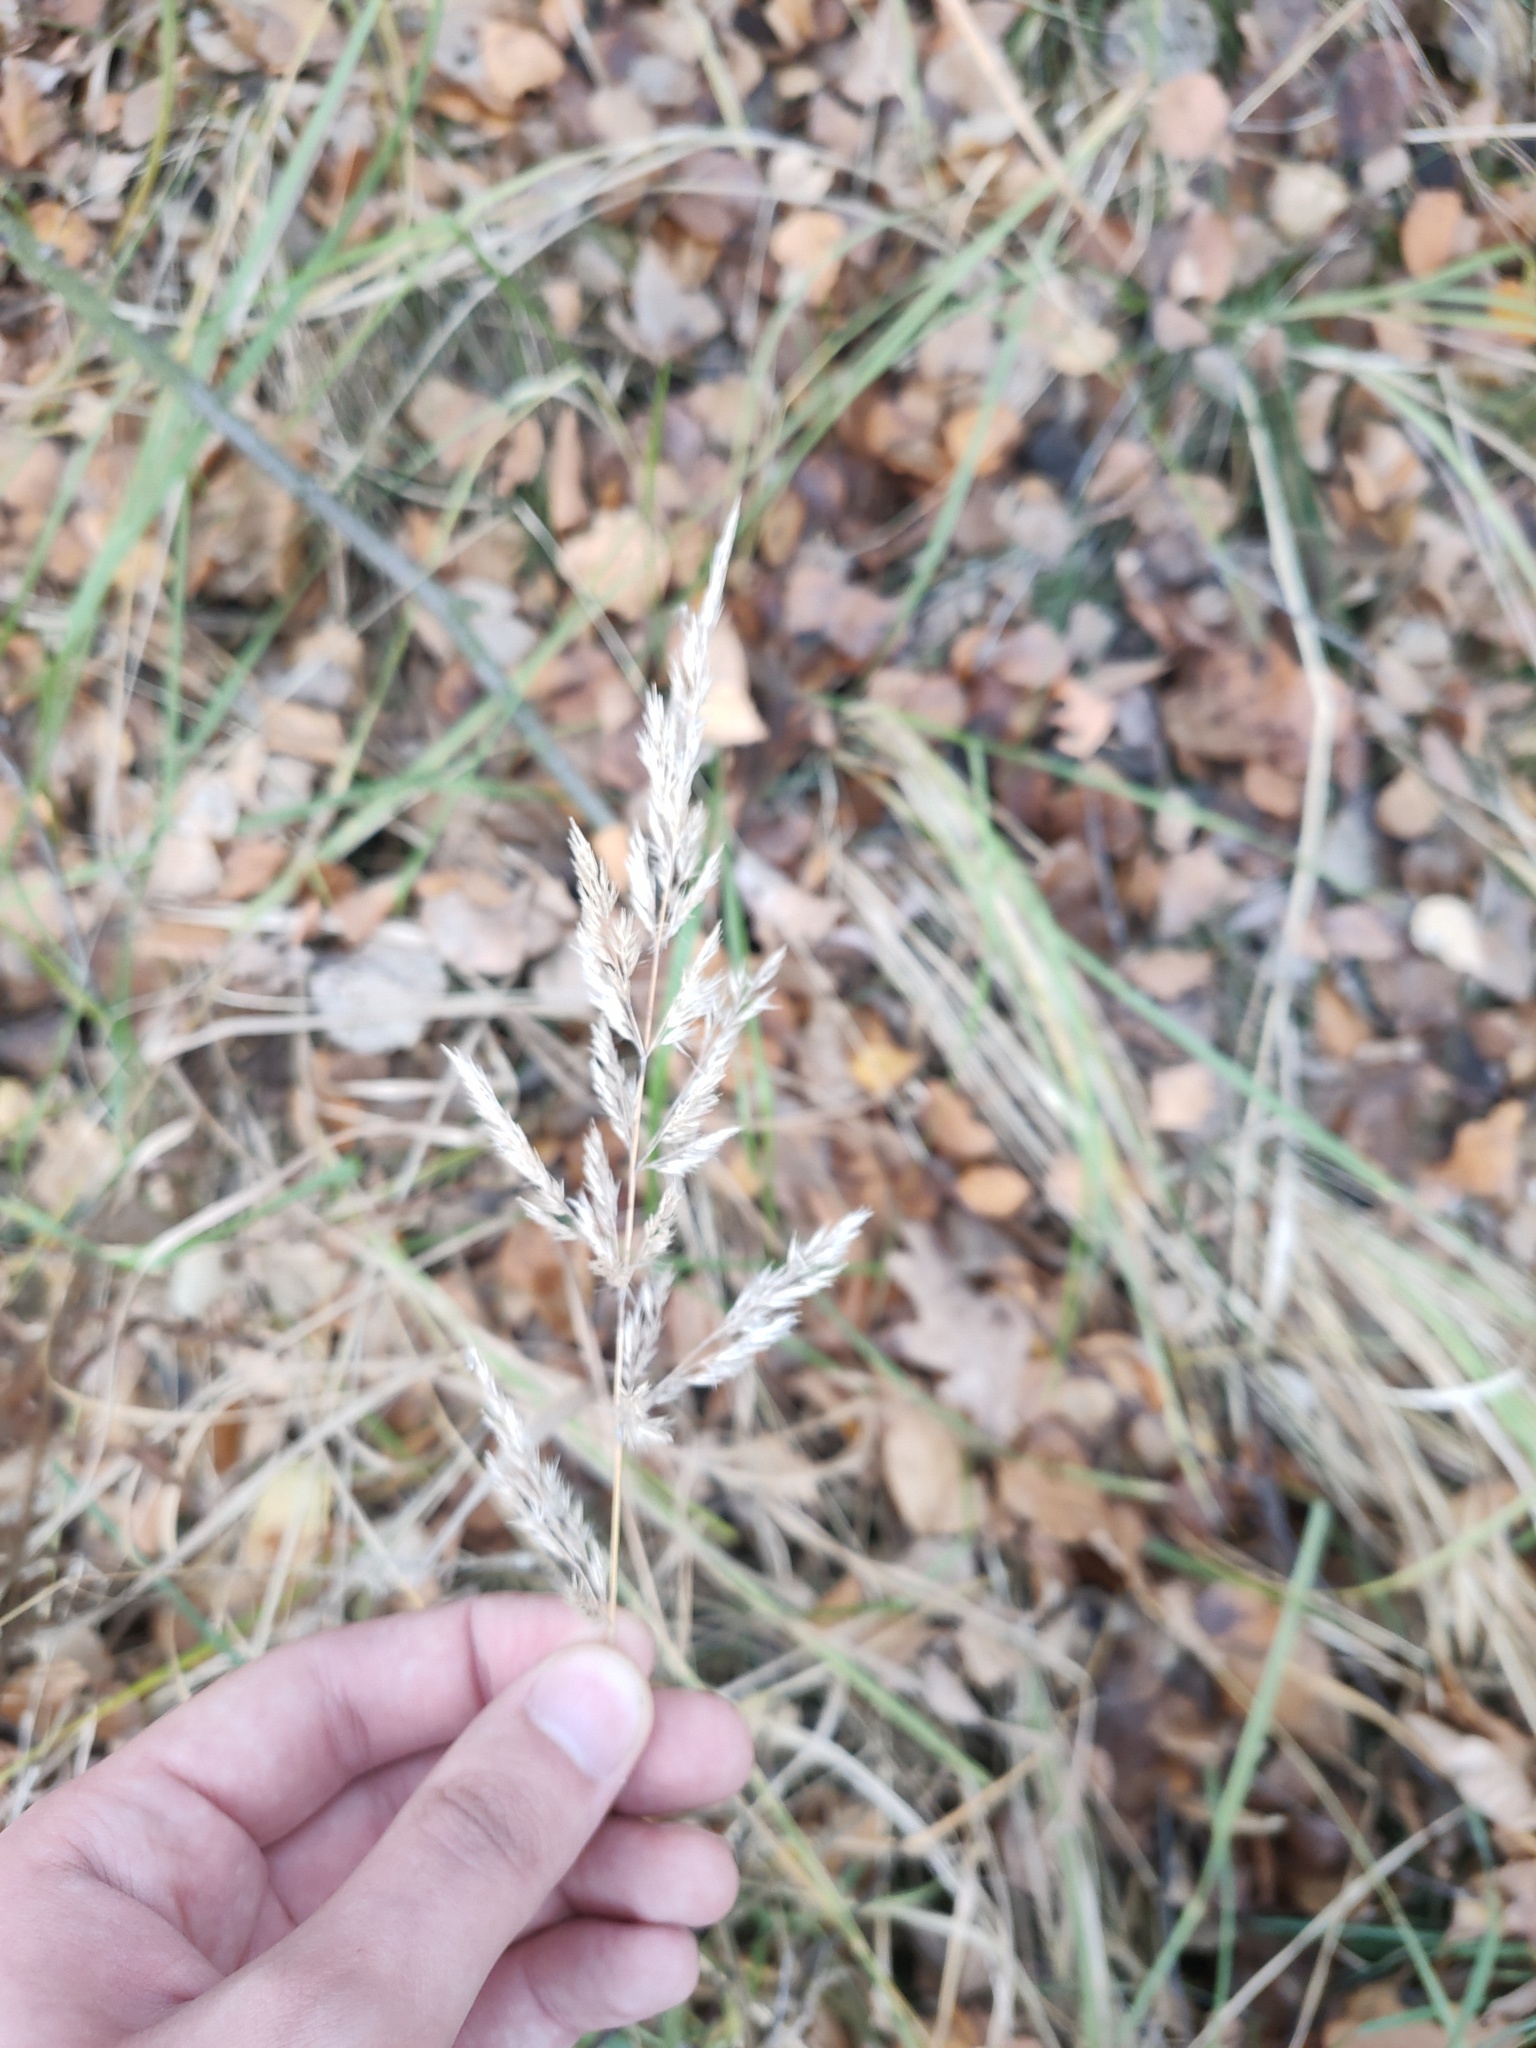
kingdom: Plantae
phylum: Tracheophyta
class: Liliopsida
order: Poales
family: Poaceae
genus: Calamagrostis
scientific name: Calamagrostis epigejos
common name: Wood small-reed
